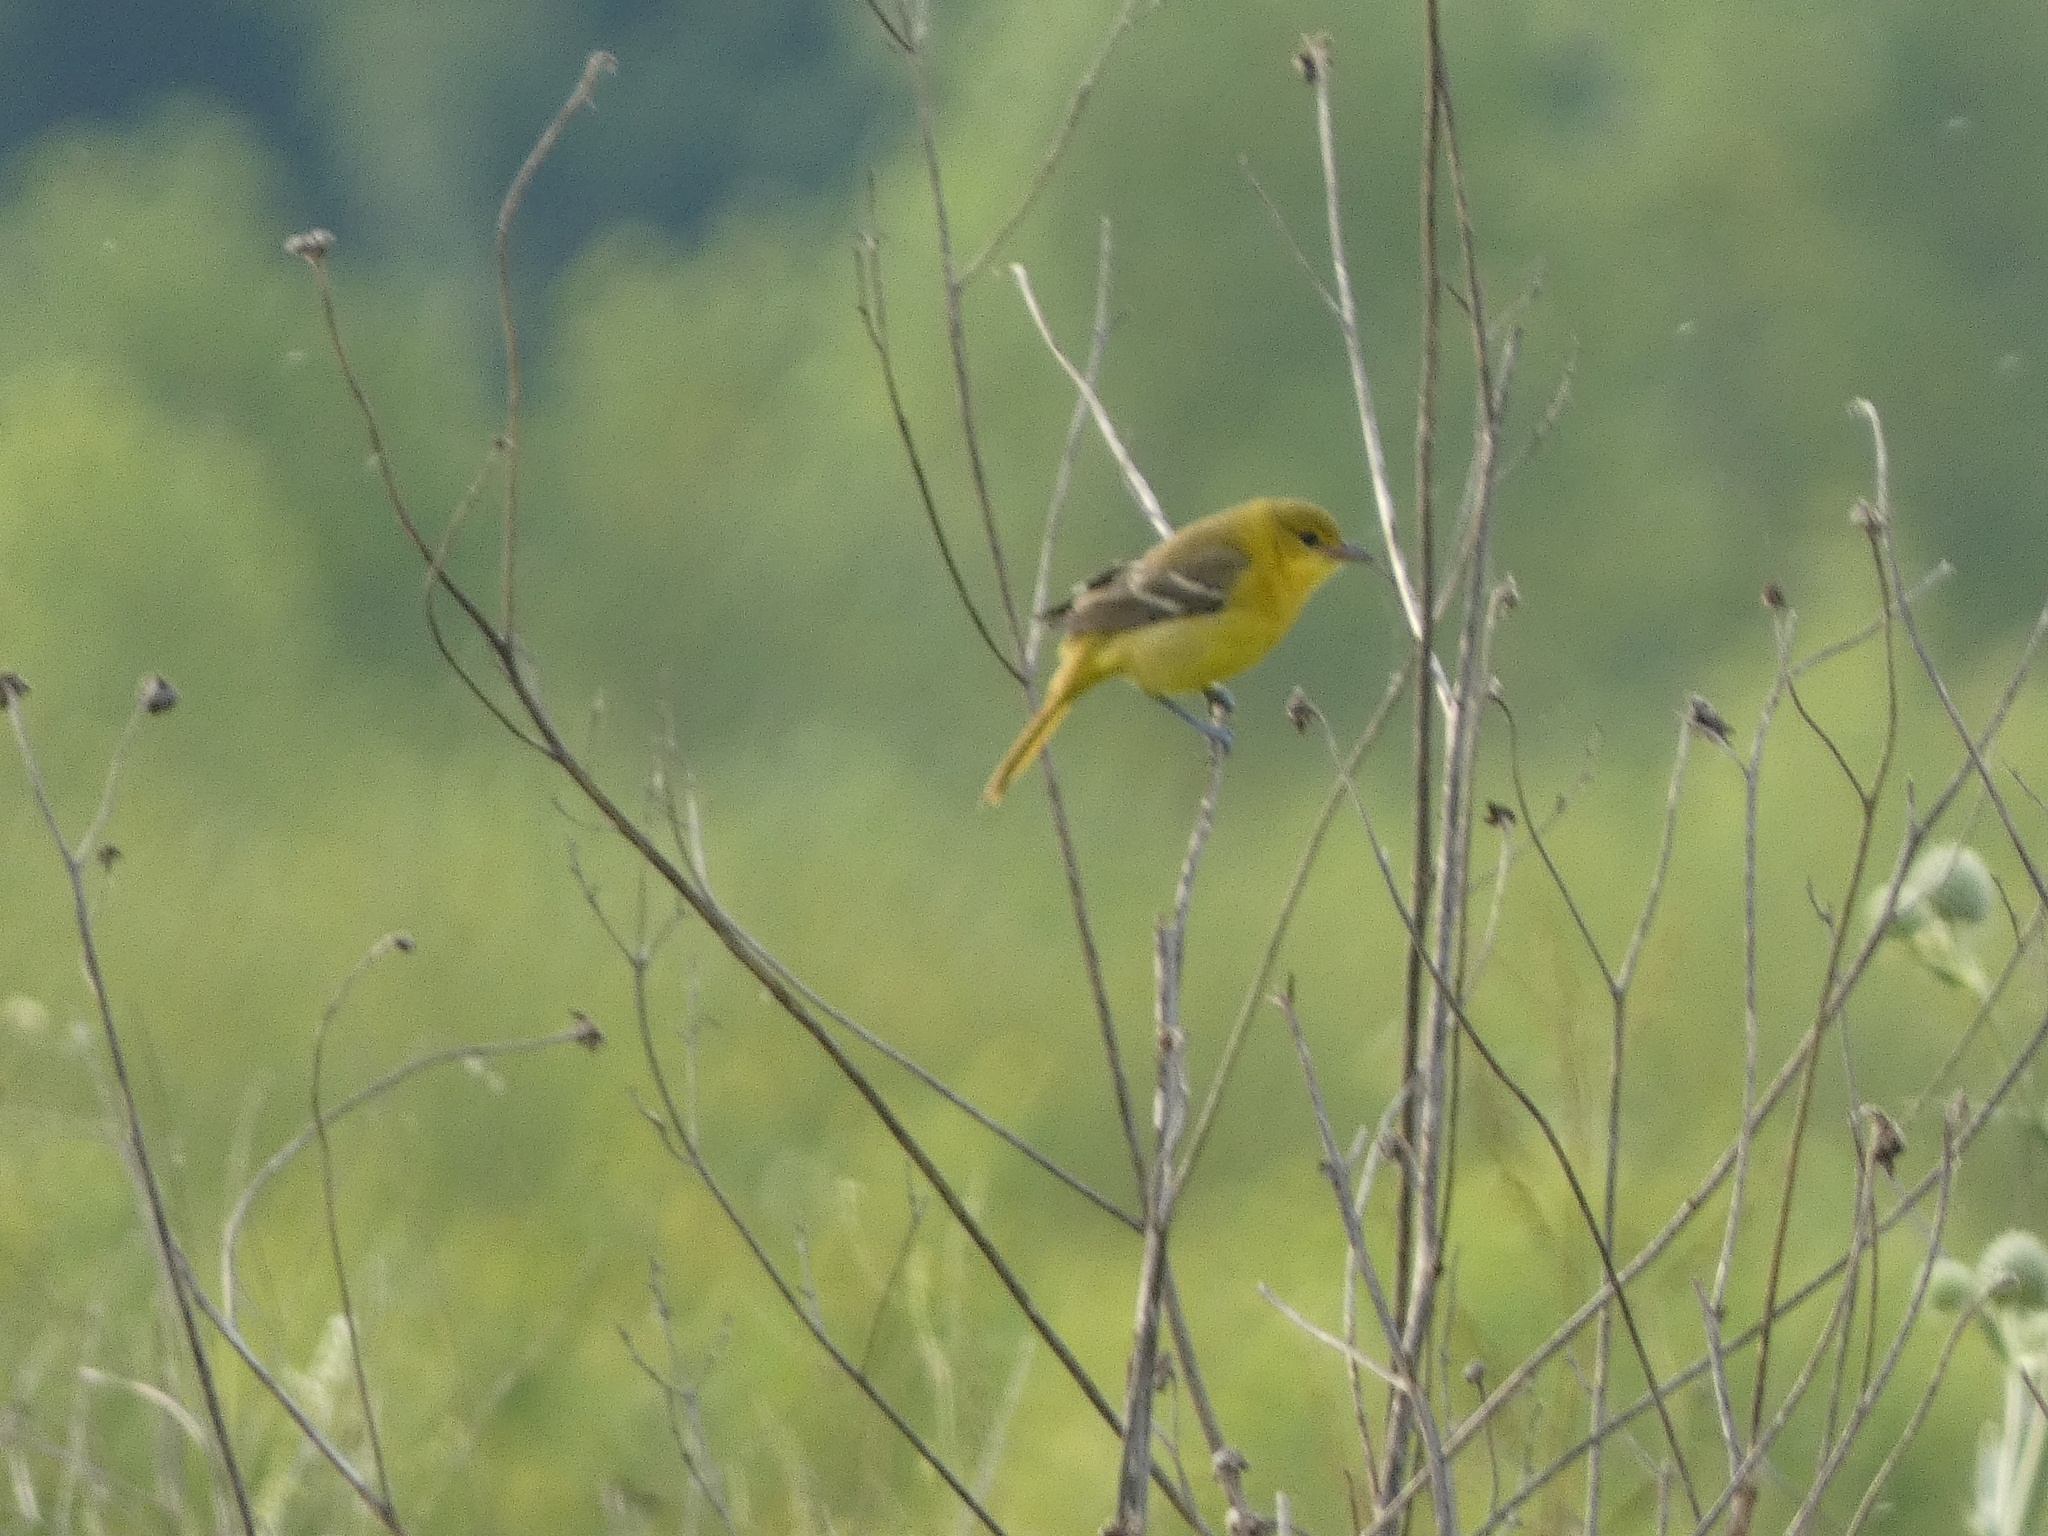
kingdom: Animalia
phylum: Chordata
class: Aves
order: Passeriformes
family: Icteridae
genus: Icterus
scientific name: Icterus spurius
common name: Orchard oriole
